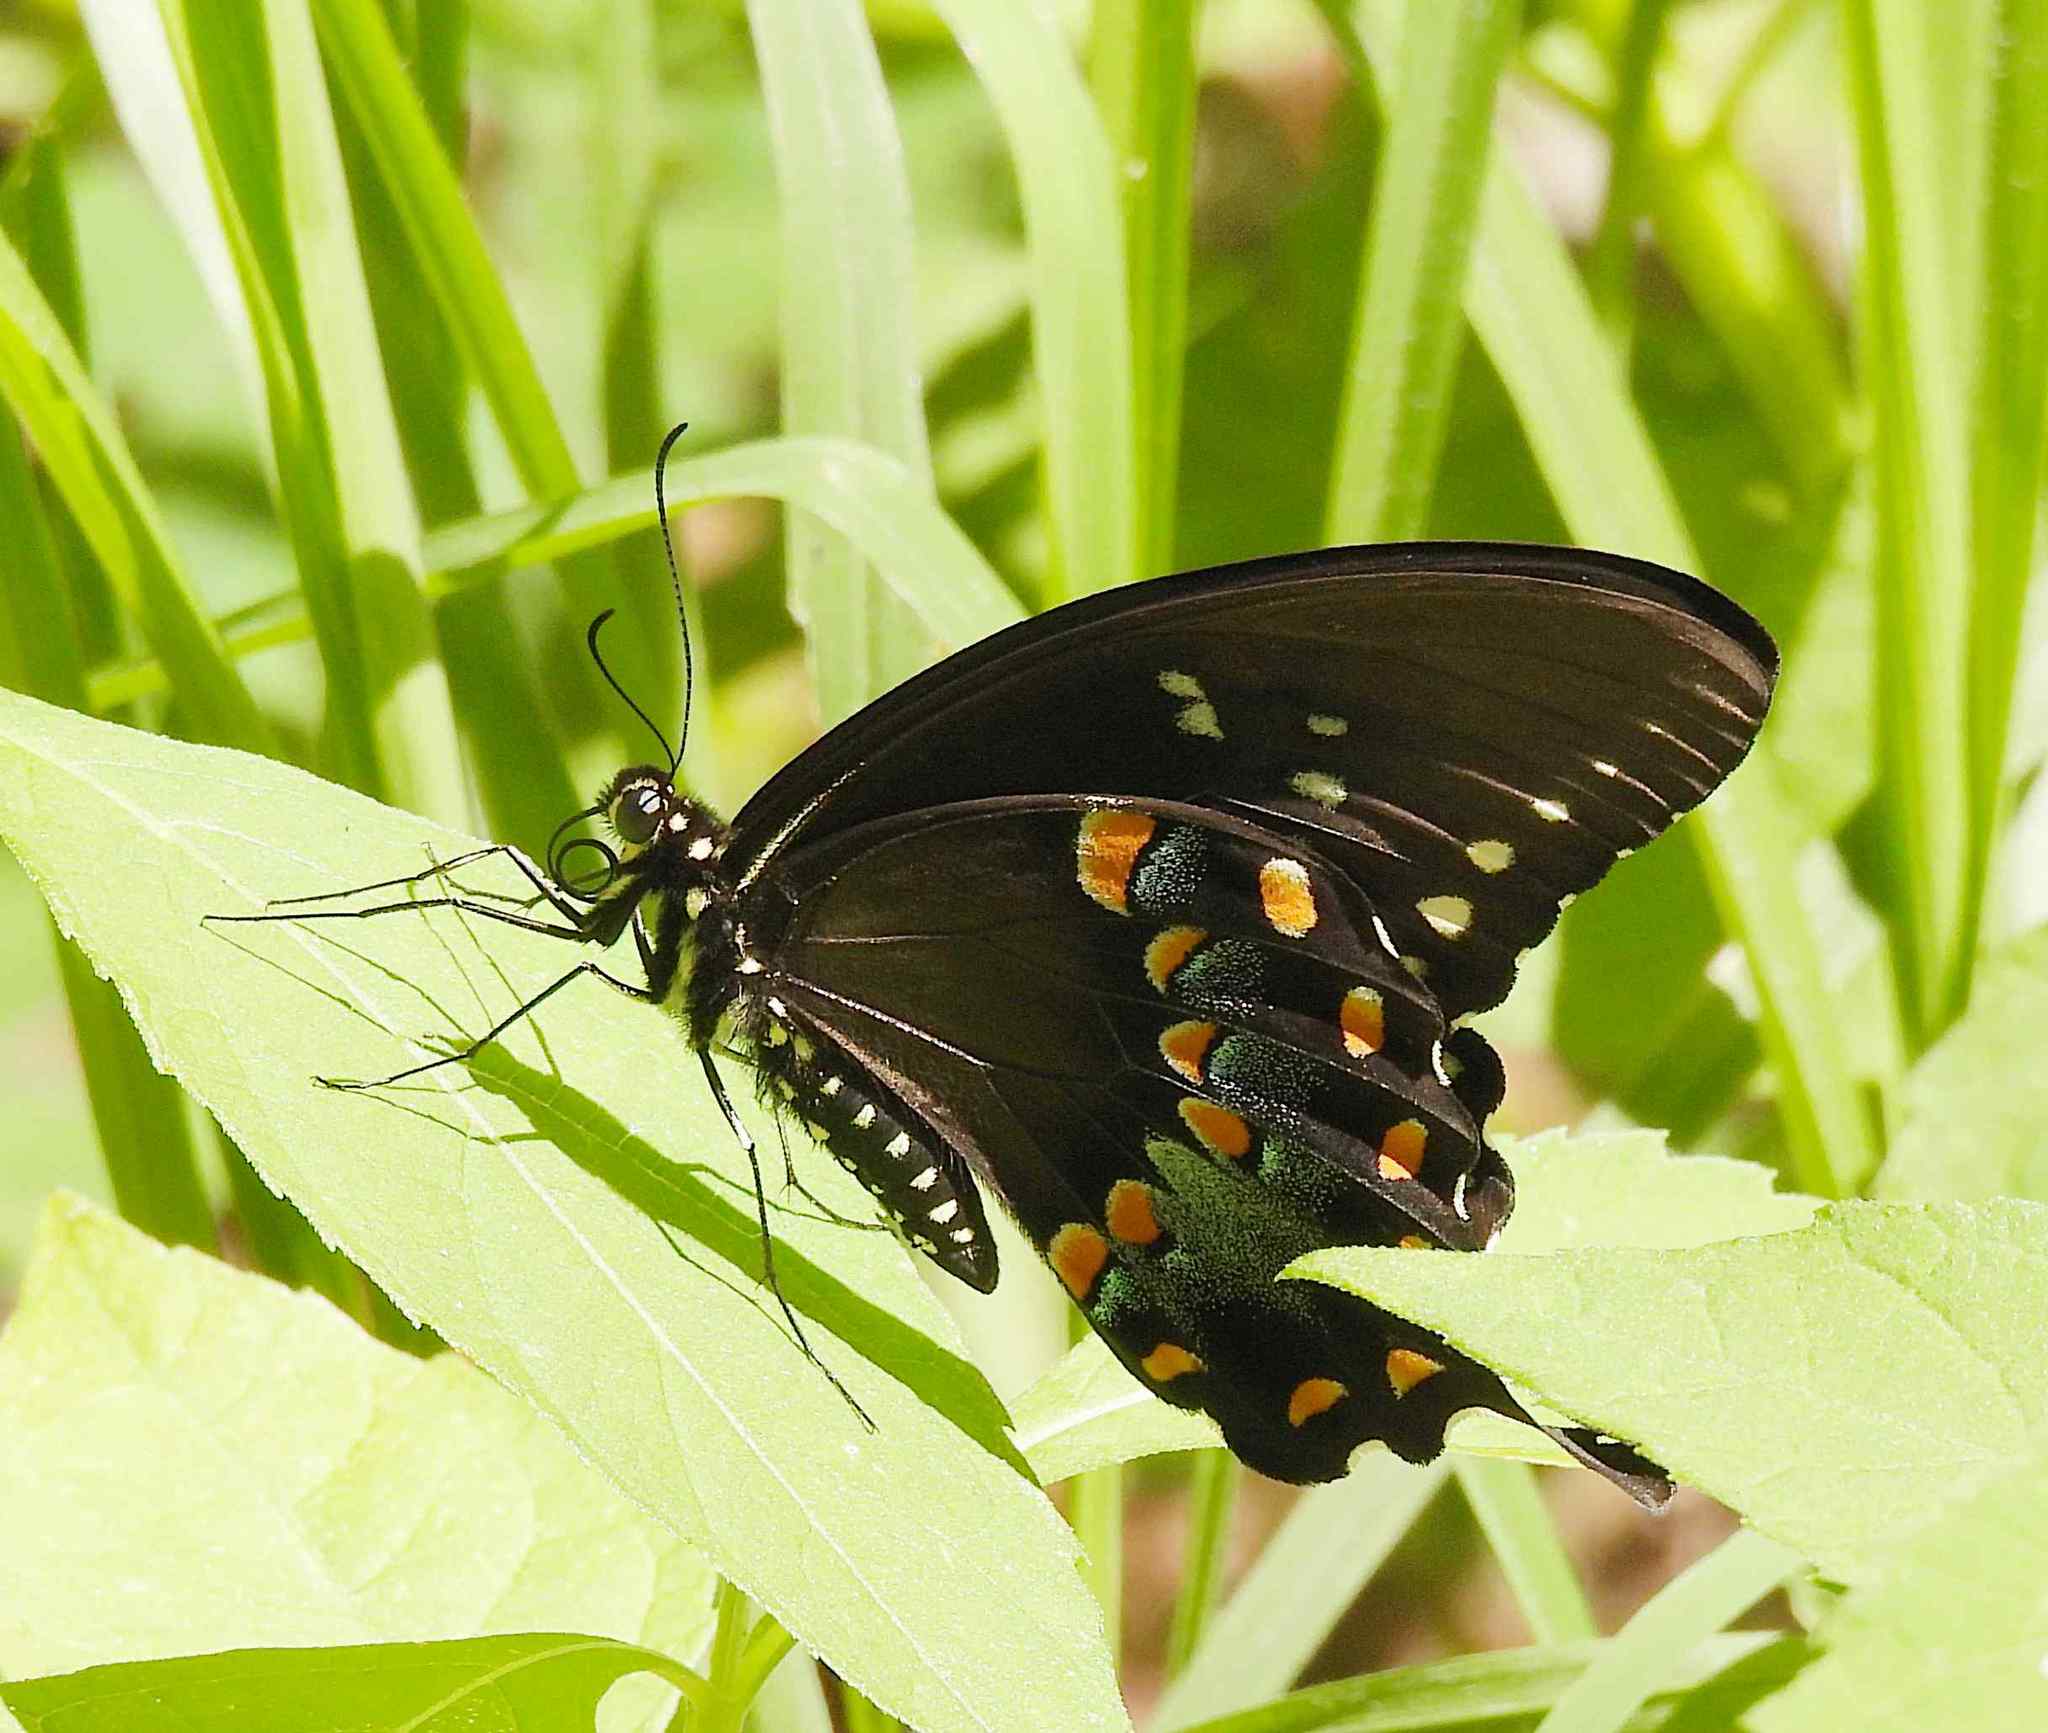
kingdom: Animalia
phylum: Arthropoda
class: Insecta
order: Lepidoptera
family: Papilionidae
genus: Papilio
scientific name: Papilio troilus
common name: Spicebush swallowtail
